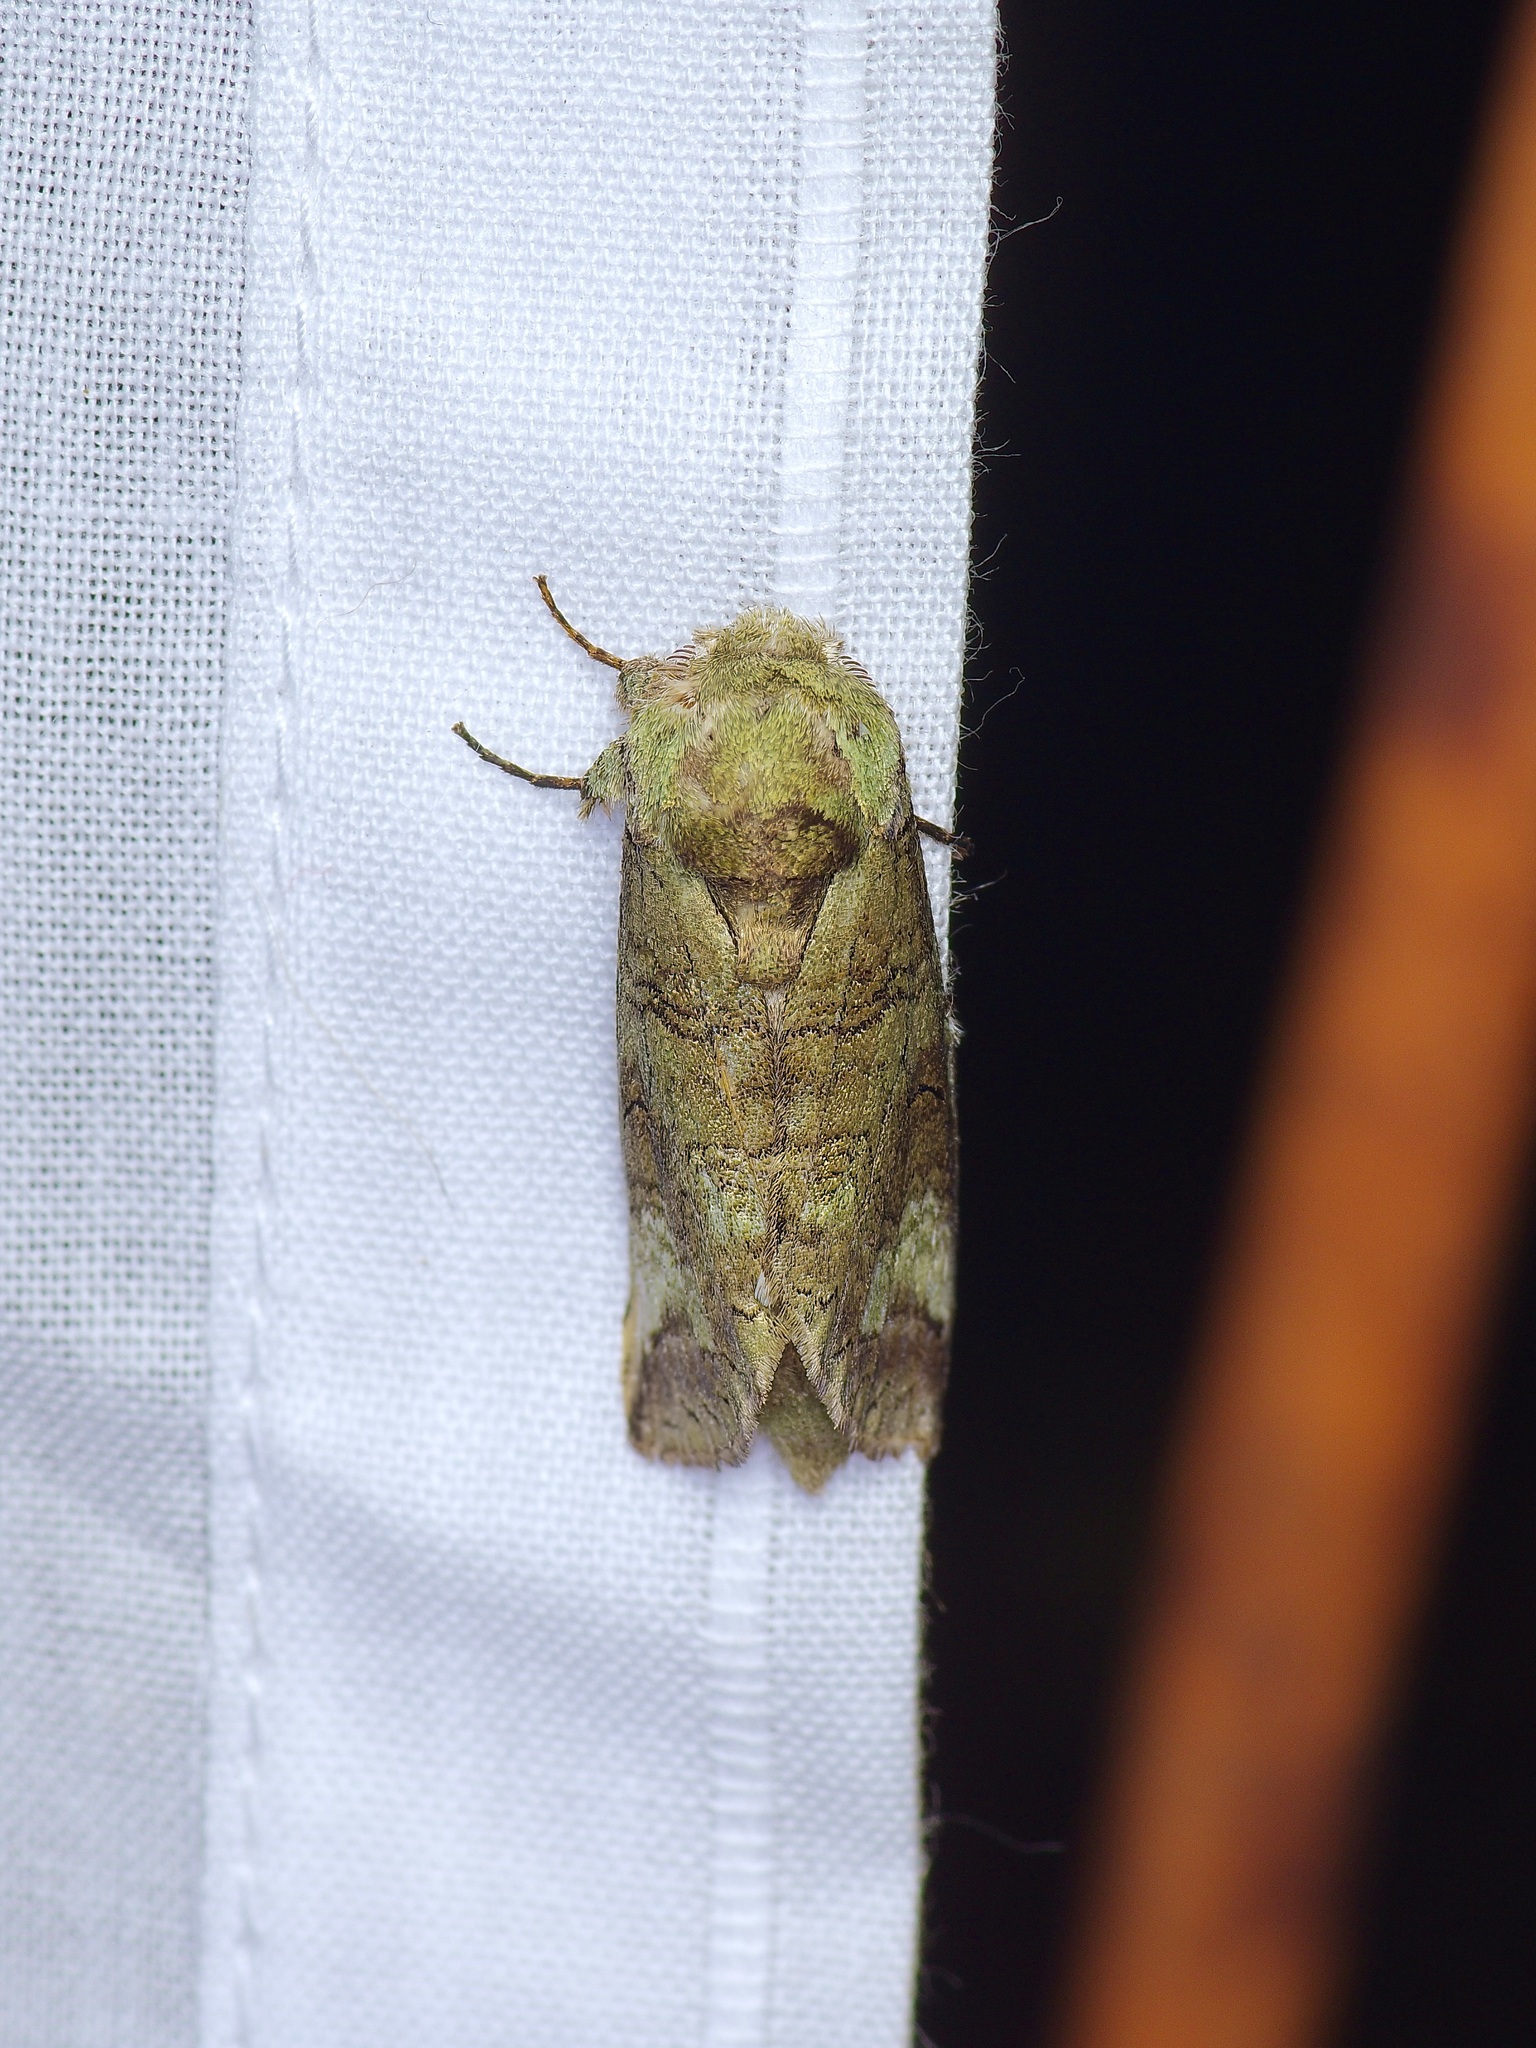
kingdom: Animalia
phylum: Arthropoda
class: Insecta
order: Lepidoptera
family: Notodontidae
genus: Heterocampa
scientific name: Heterocampa astartoides
